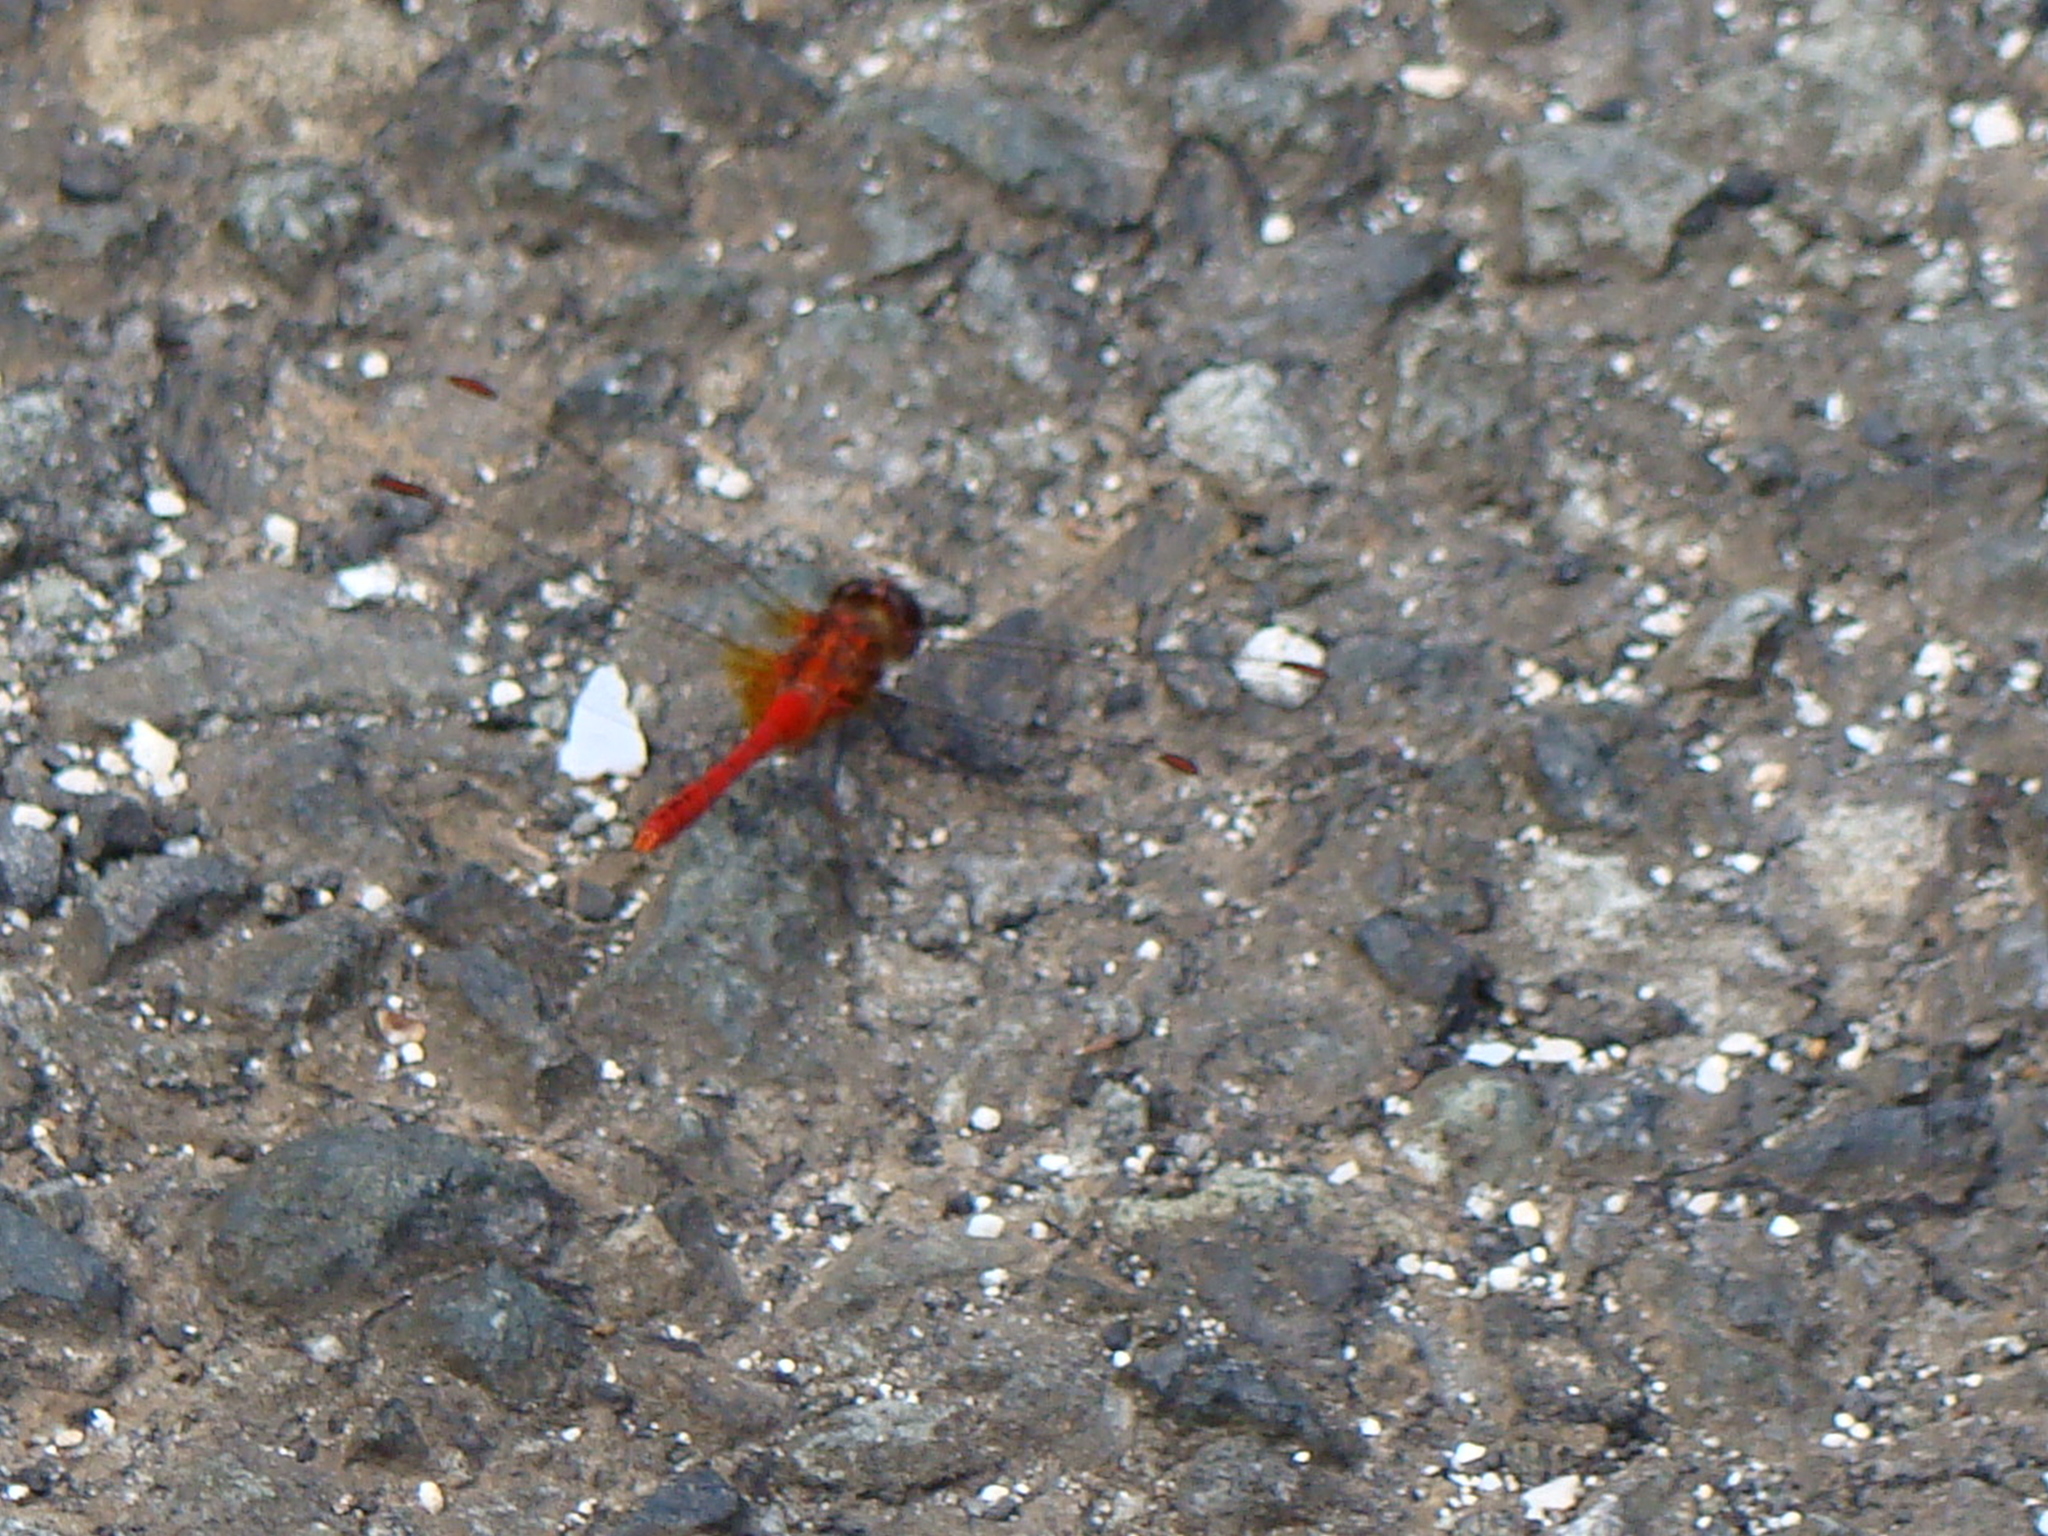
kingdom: Animalia
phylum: Arthropoda
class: Insecta
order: Odonata
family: Libellulidae
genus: Diplacodes
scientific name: Diplacodes bipunctata
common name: Red percher dragonfly
